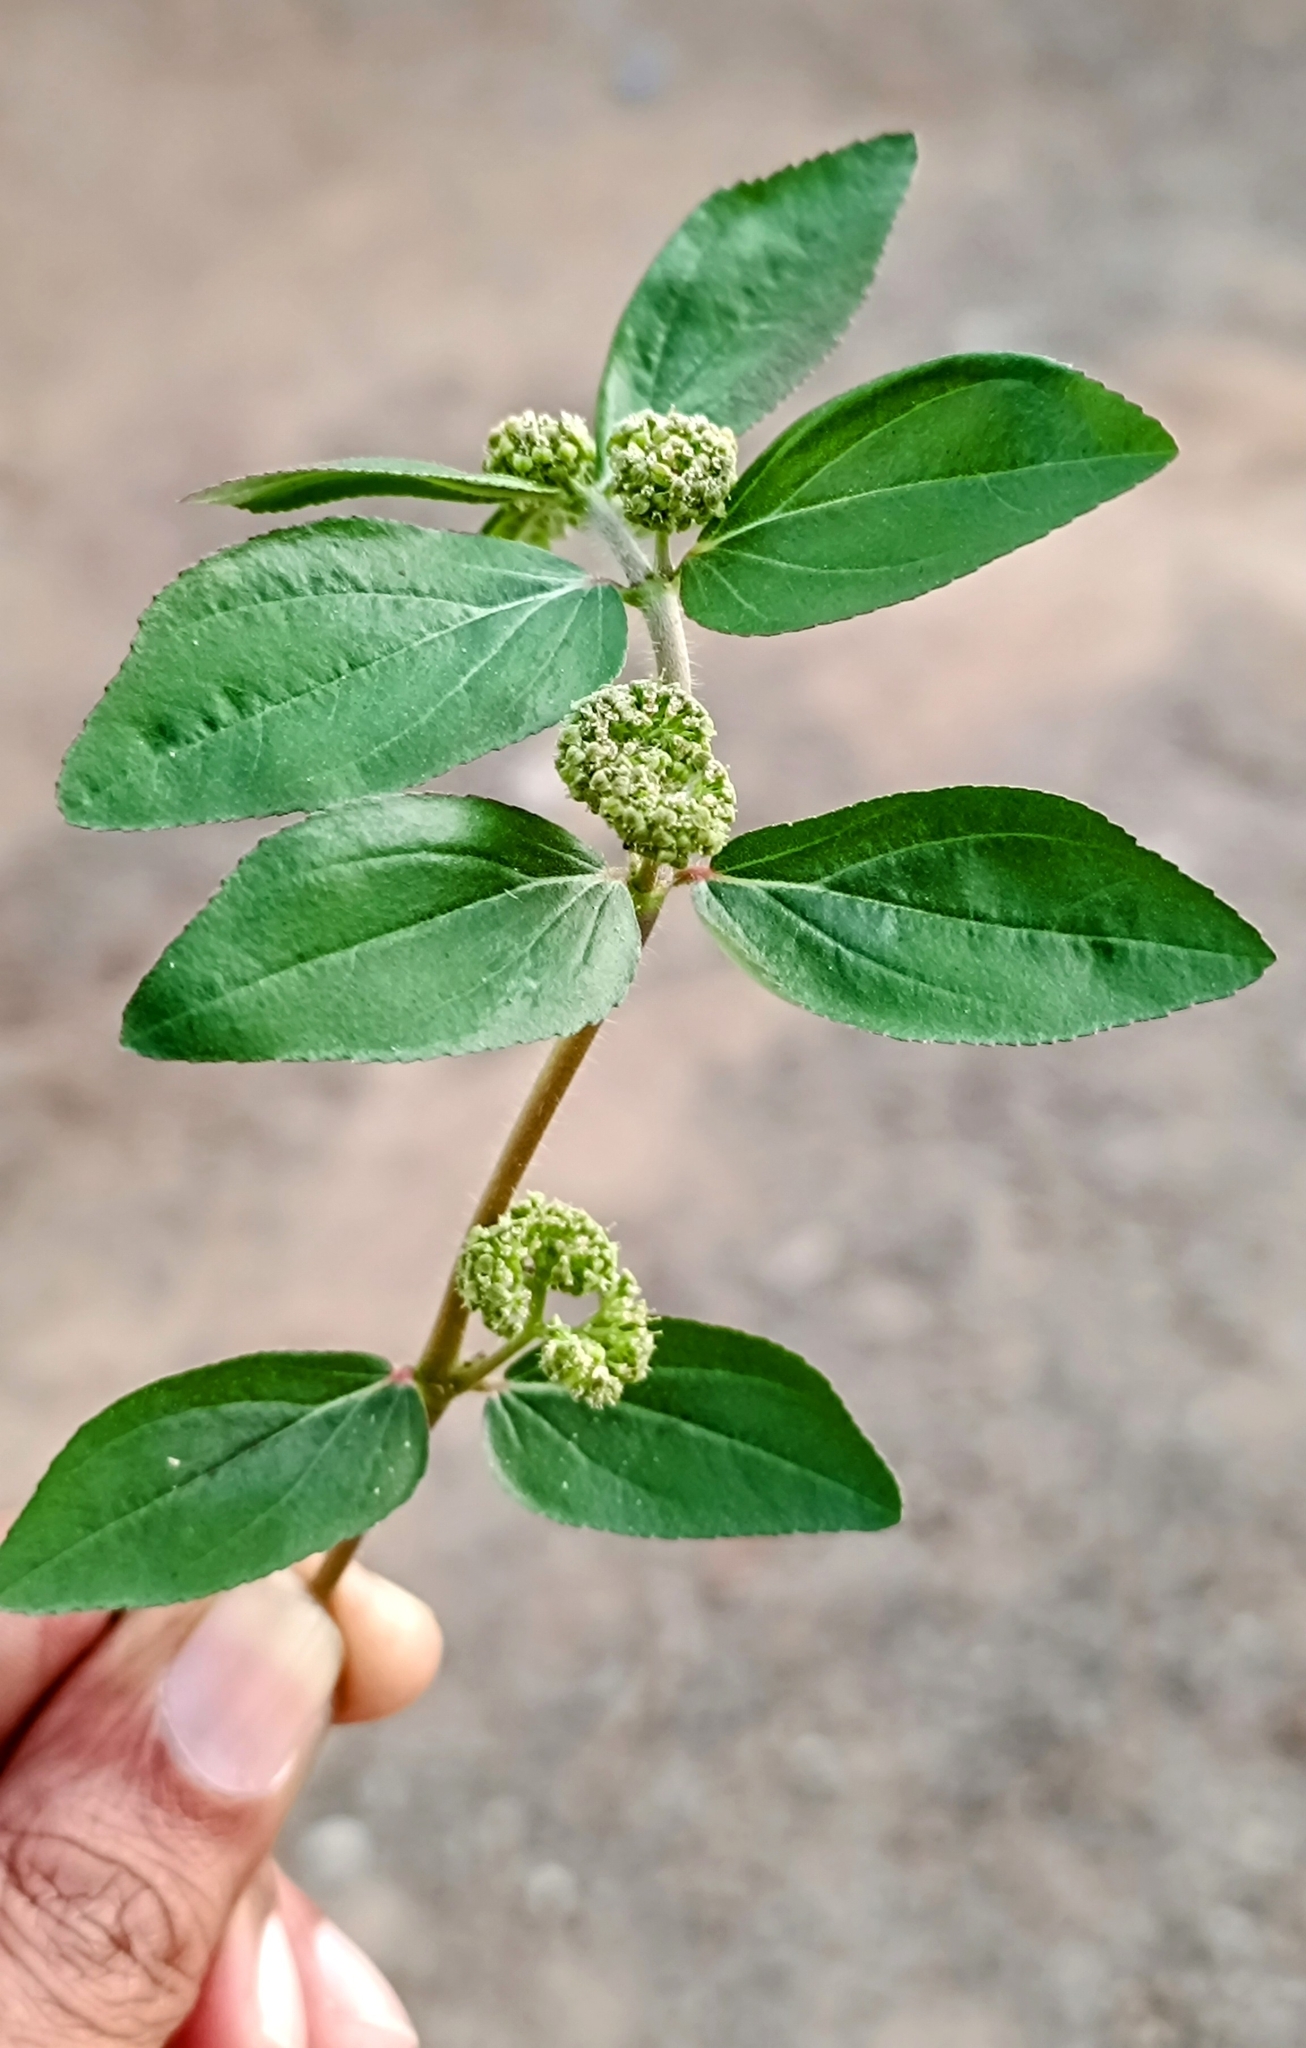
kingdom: Plantae
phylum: Tracheophyta
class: Magnoliopsida
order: Malpighiales
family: Euphorbiaceae
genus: Euphorbia
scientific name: Euphorbia hirta
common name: Pillpod sandmat
